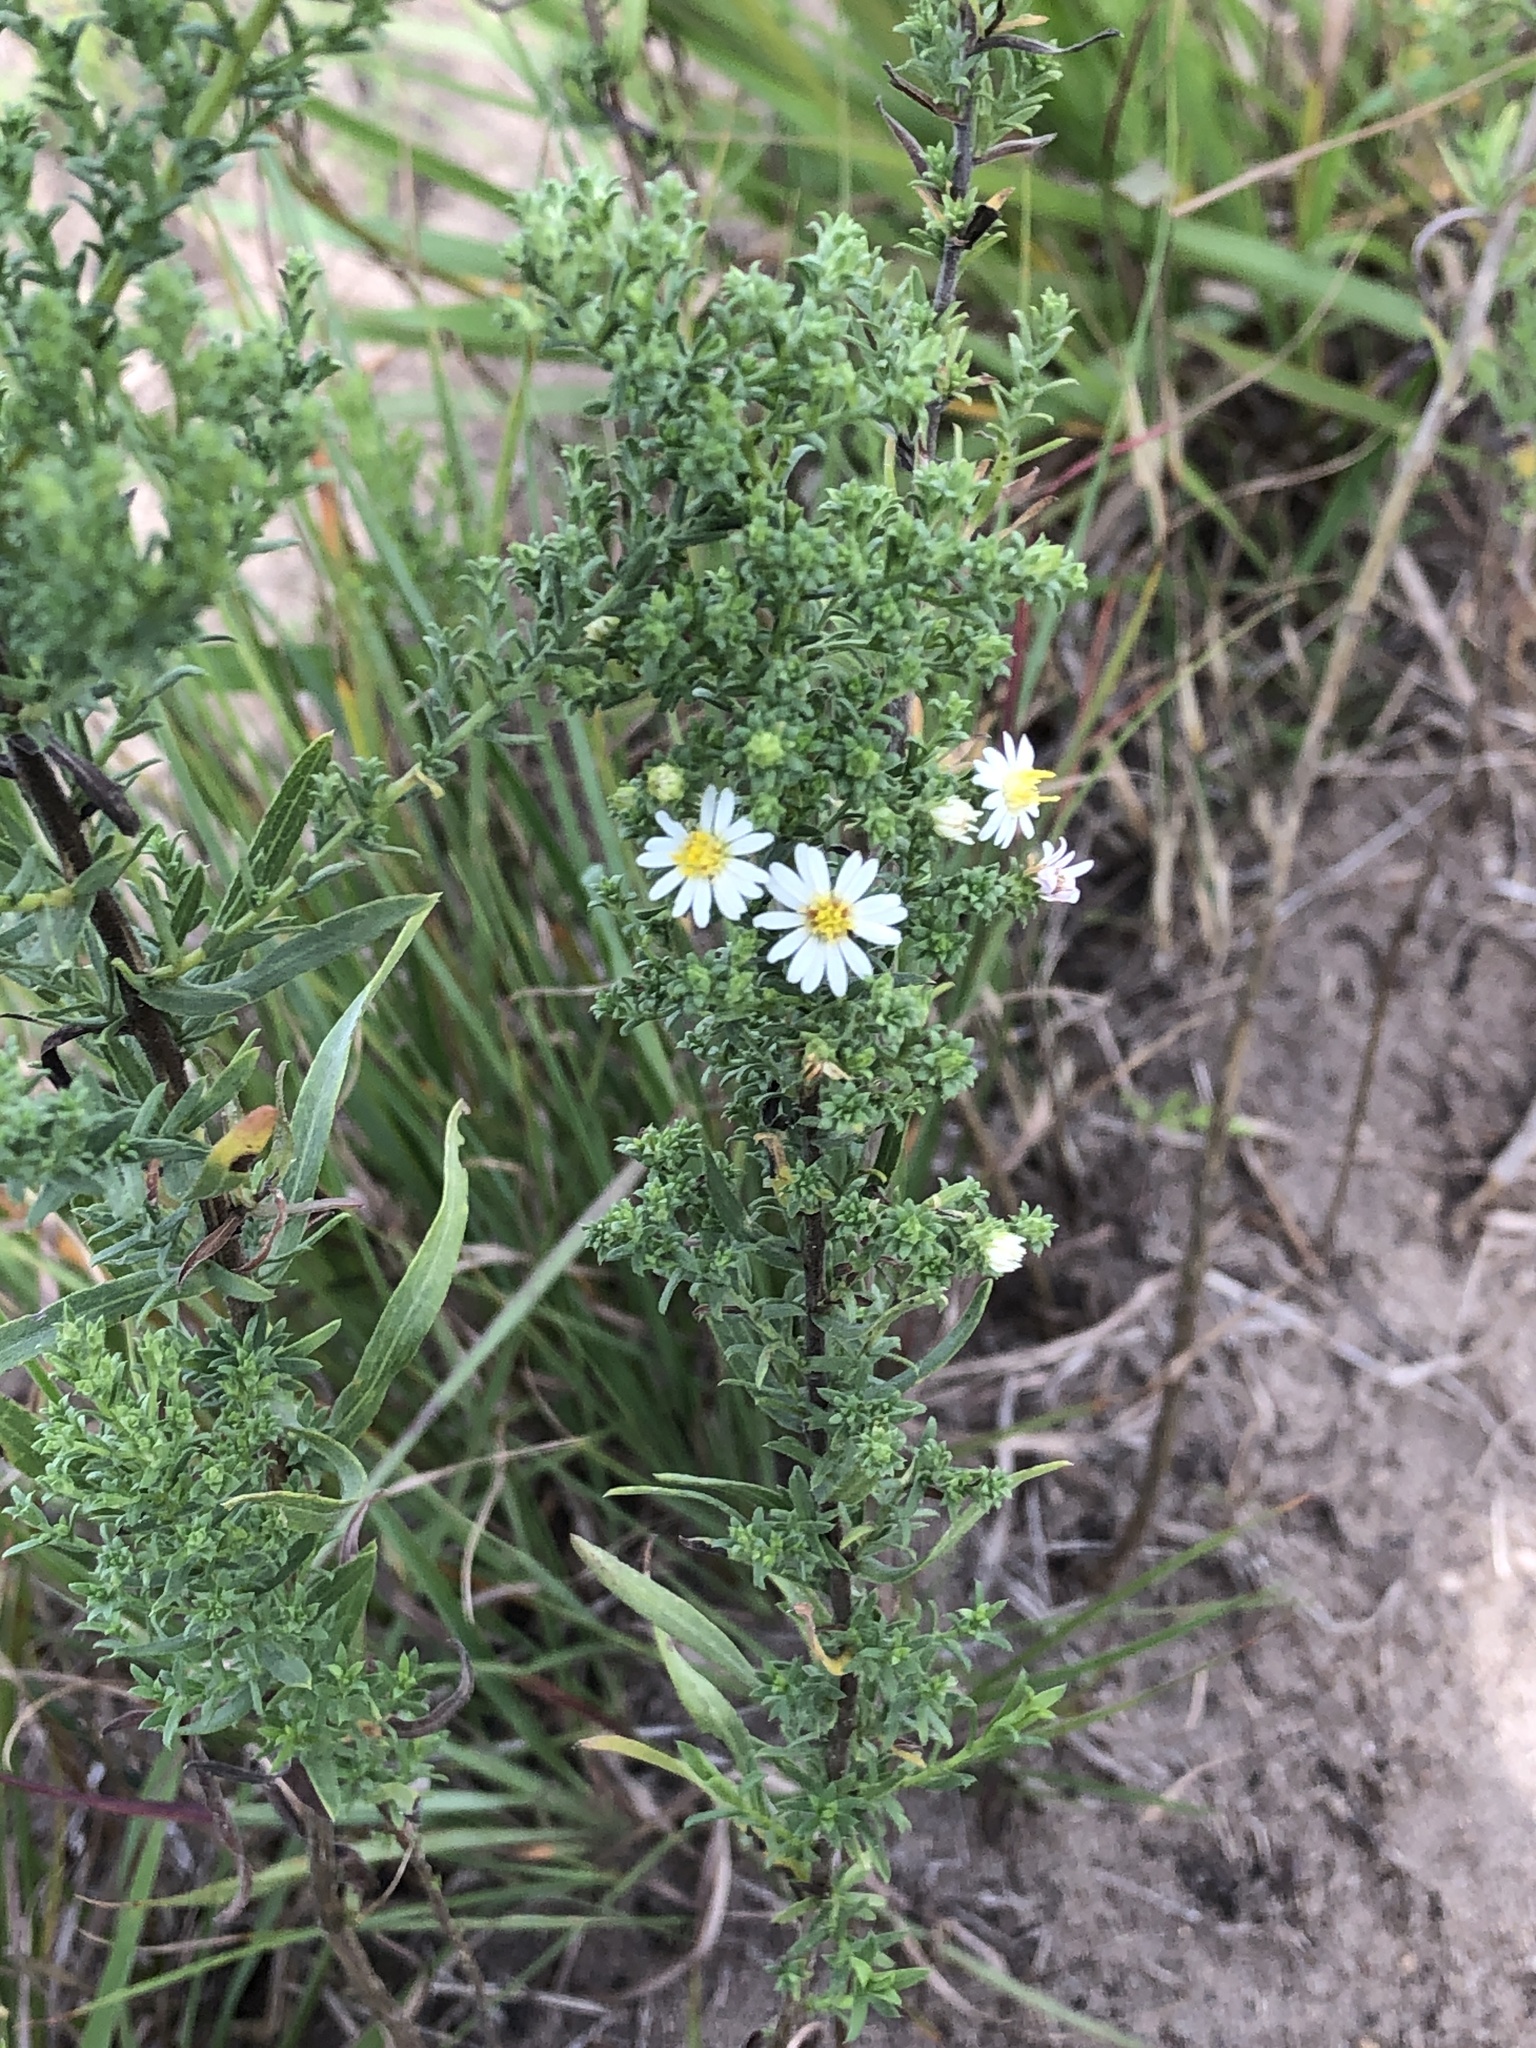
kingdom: Plantae
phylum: Tracheophyta
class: Magnoliopsida
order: Asterales
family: Asteraceae
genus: Symphyotrichum
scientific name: Symphyotrichum ericoides
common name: Heath aster
